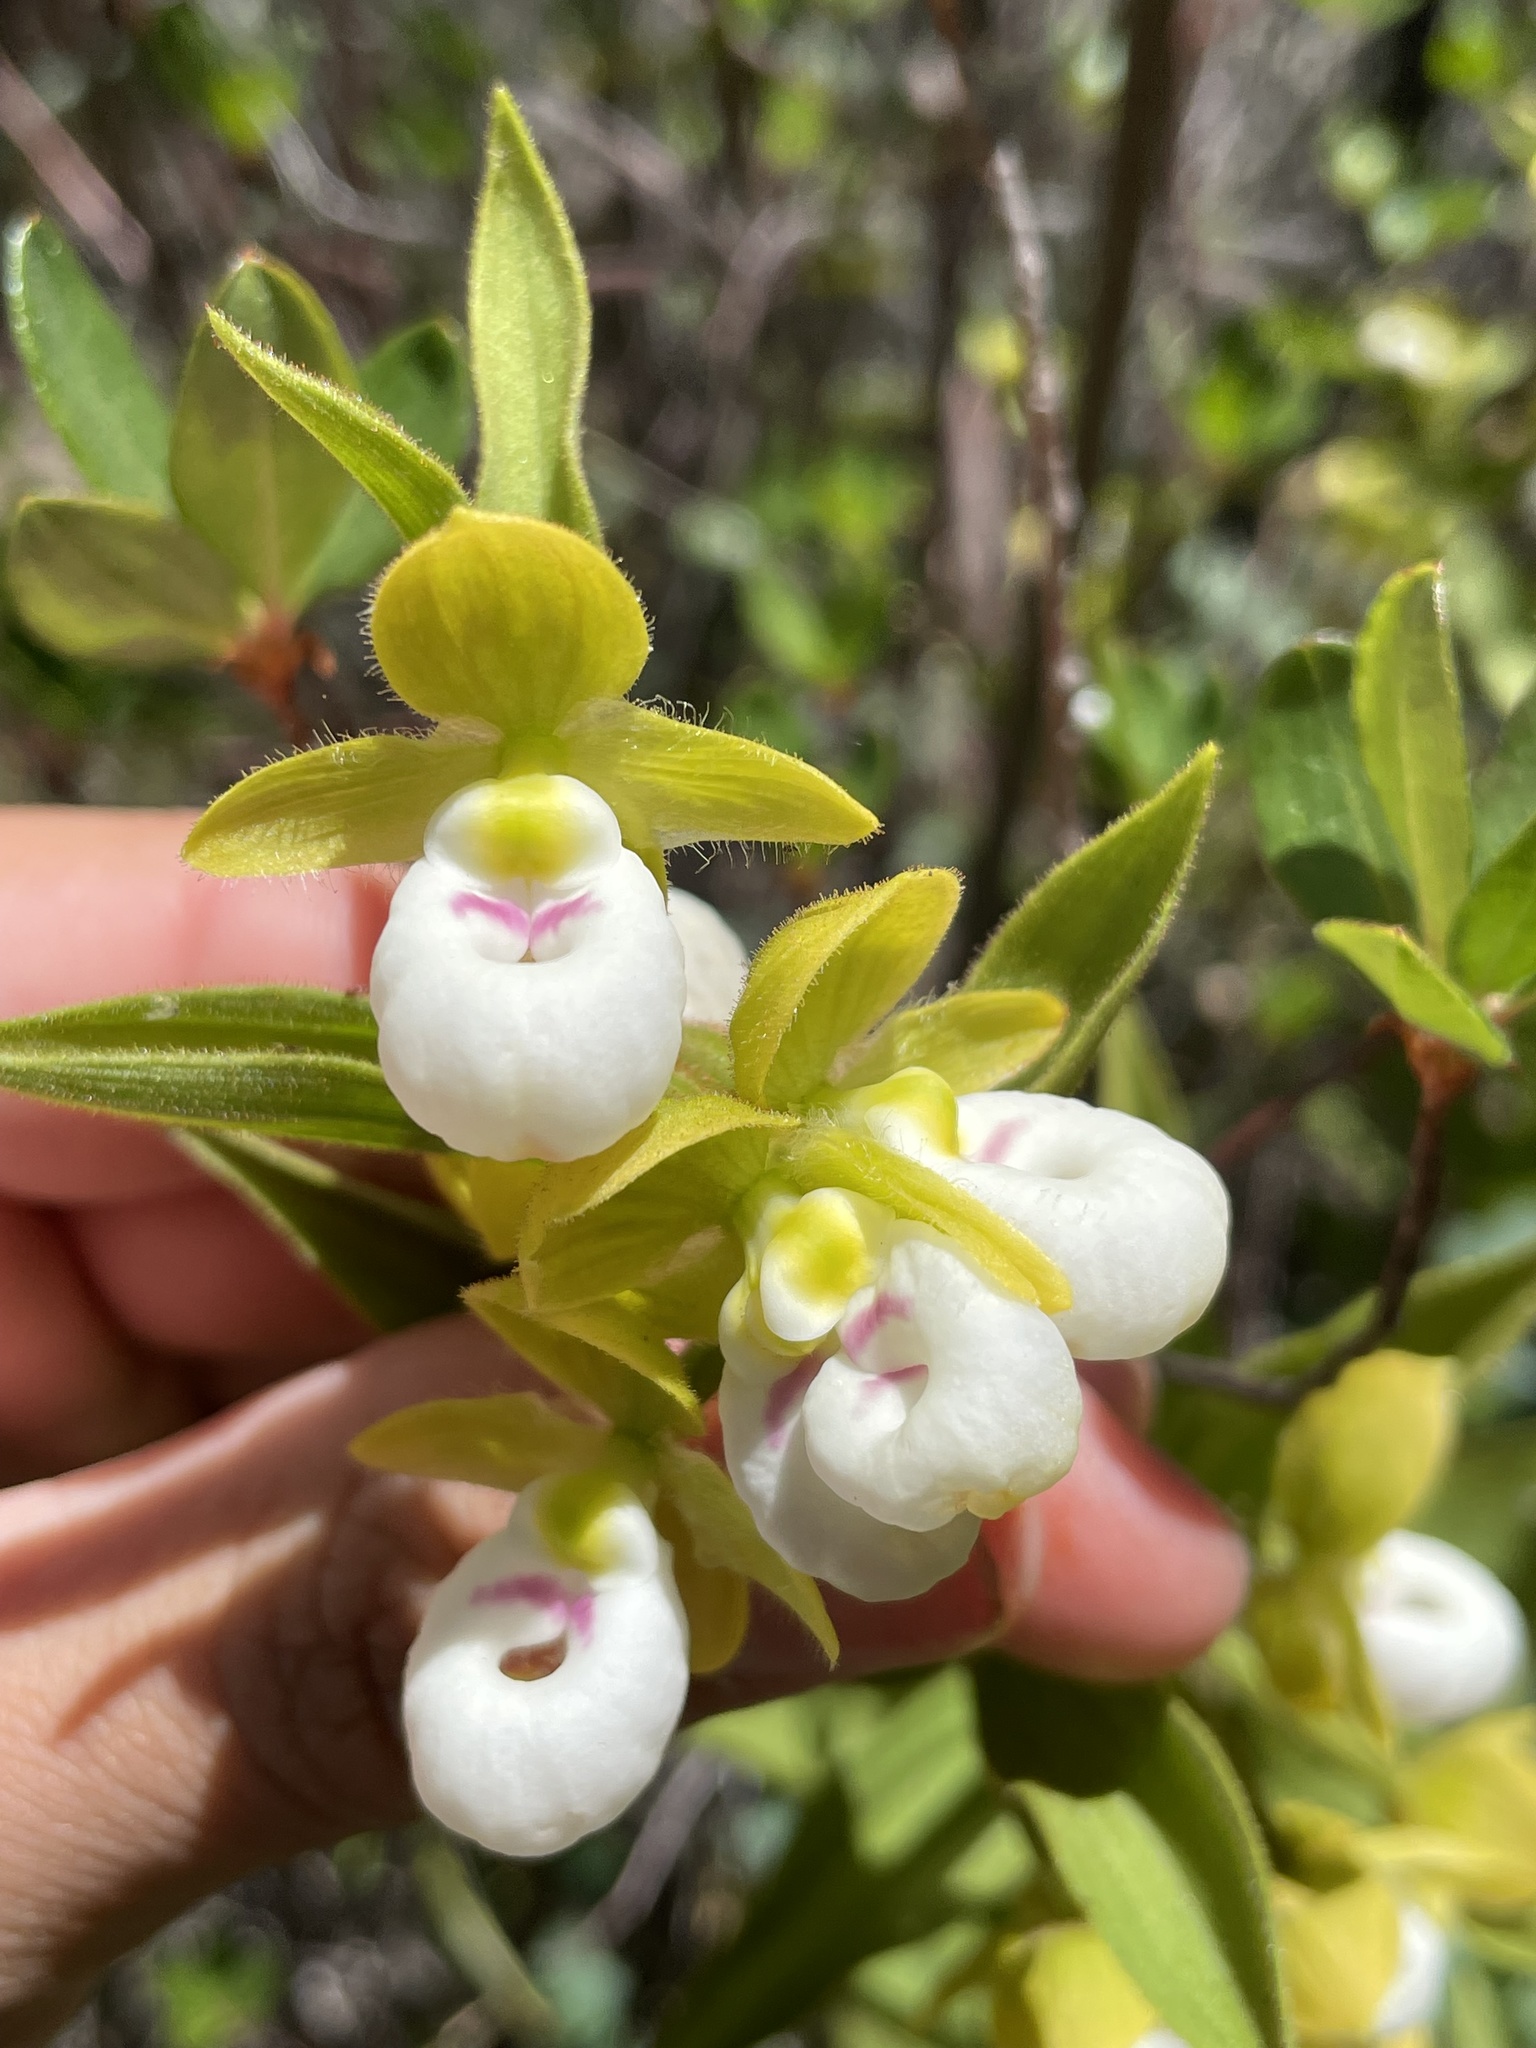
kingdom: Plantae
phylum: Tracheophyta
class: Liliopsida
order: Asparagales
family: Orchidaceae
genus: Cypripedium
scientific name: Cypripedium californicum
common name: California lady's slipper
